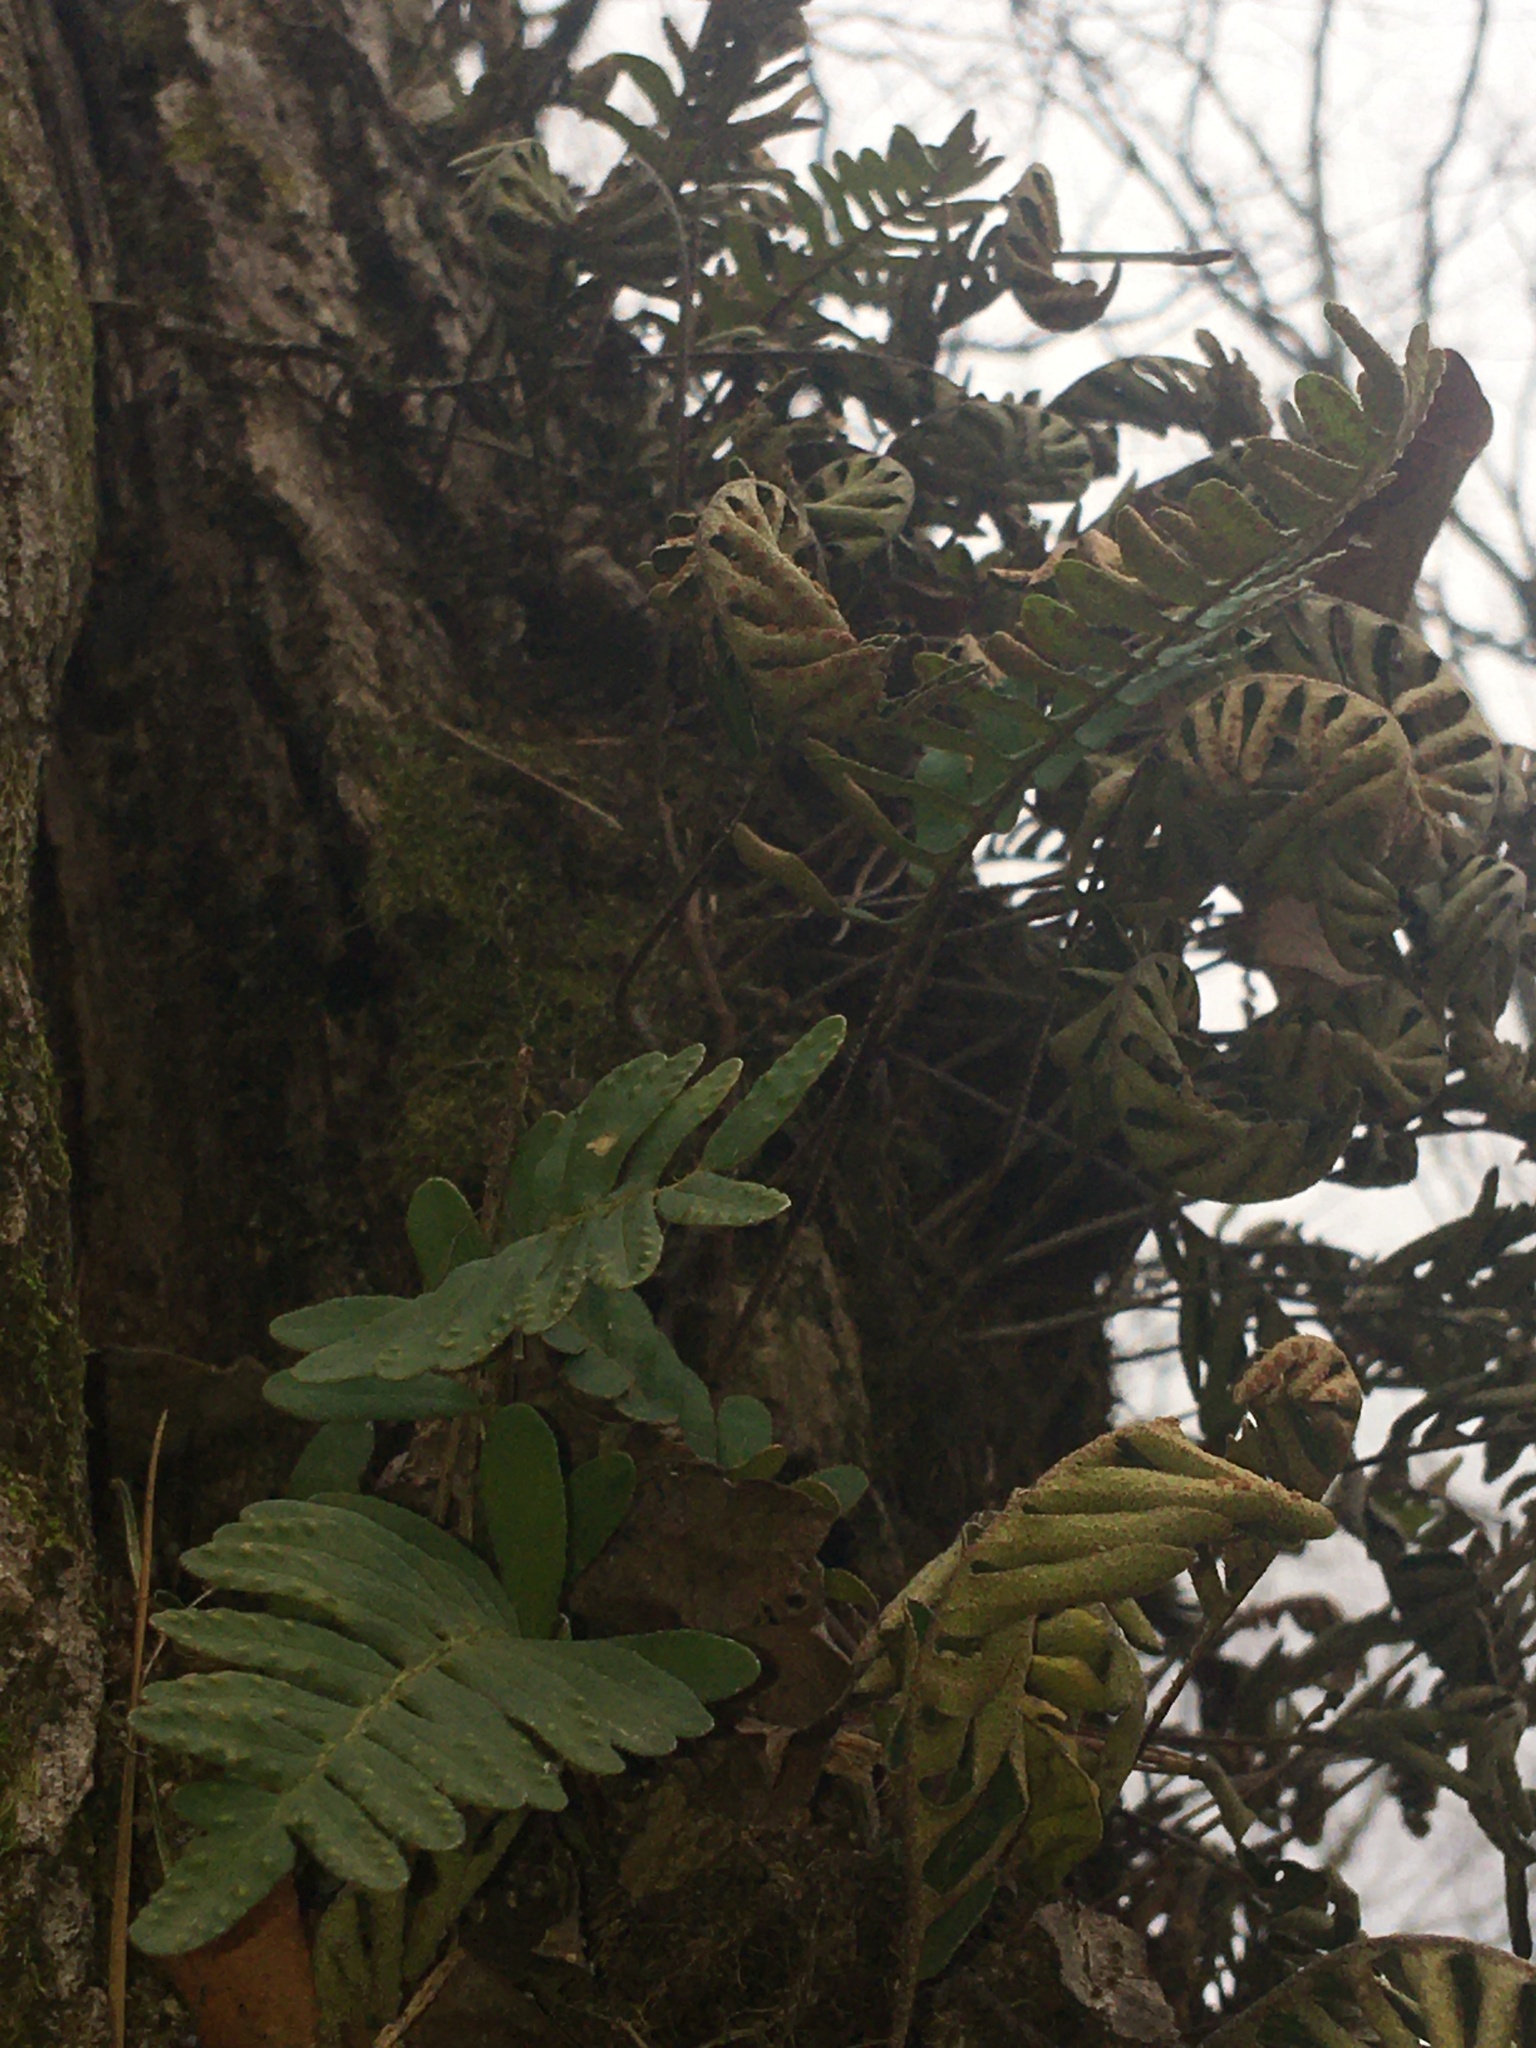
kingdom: Plantae
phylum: Tracheophyta
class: Polypodiopsida
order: Polypodiales
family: Polypodiaceae
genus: Pleopeltis
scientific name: Pleopeltis michauxiana
